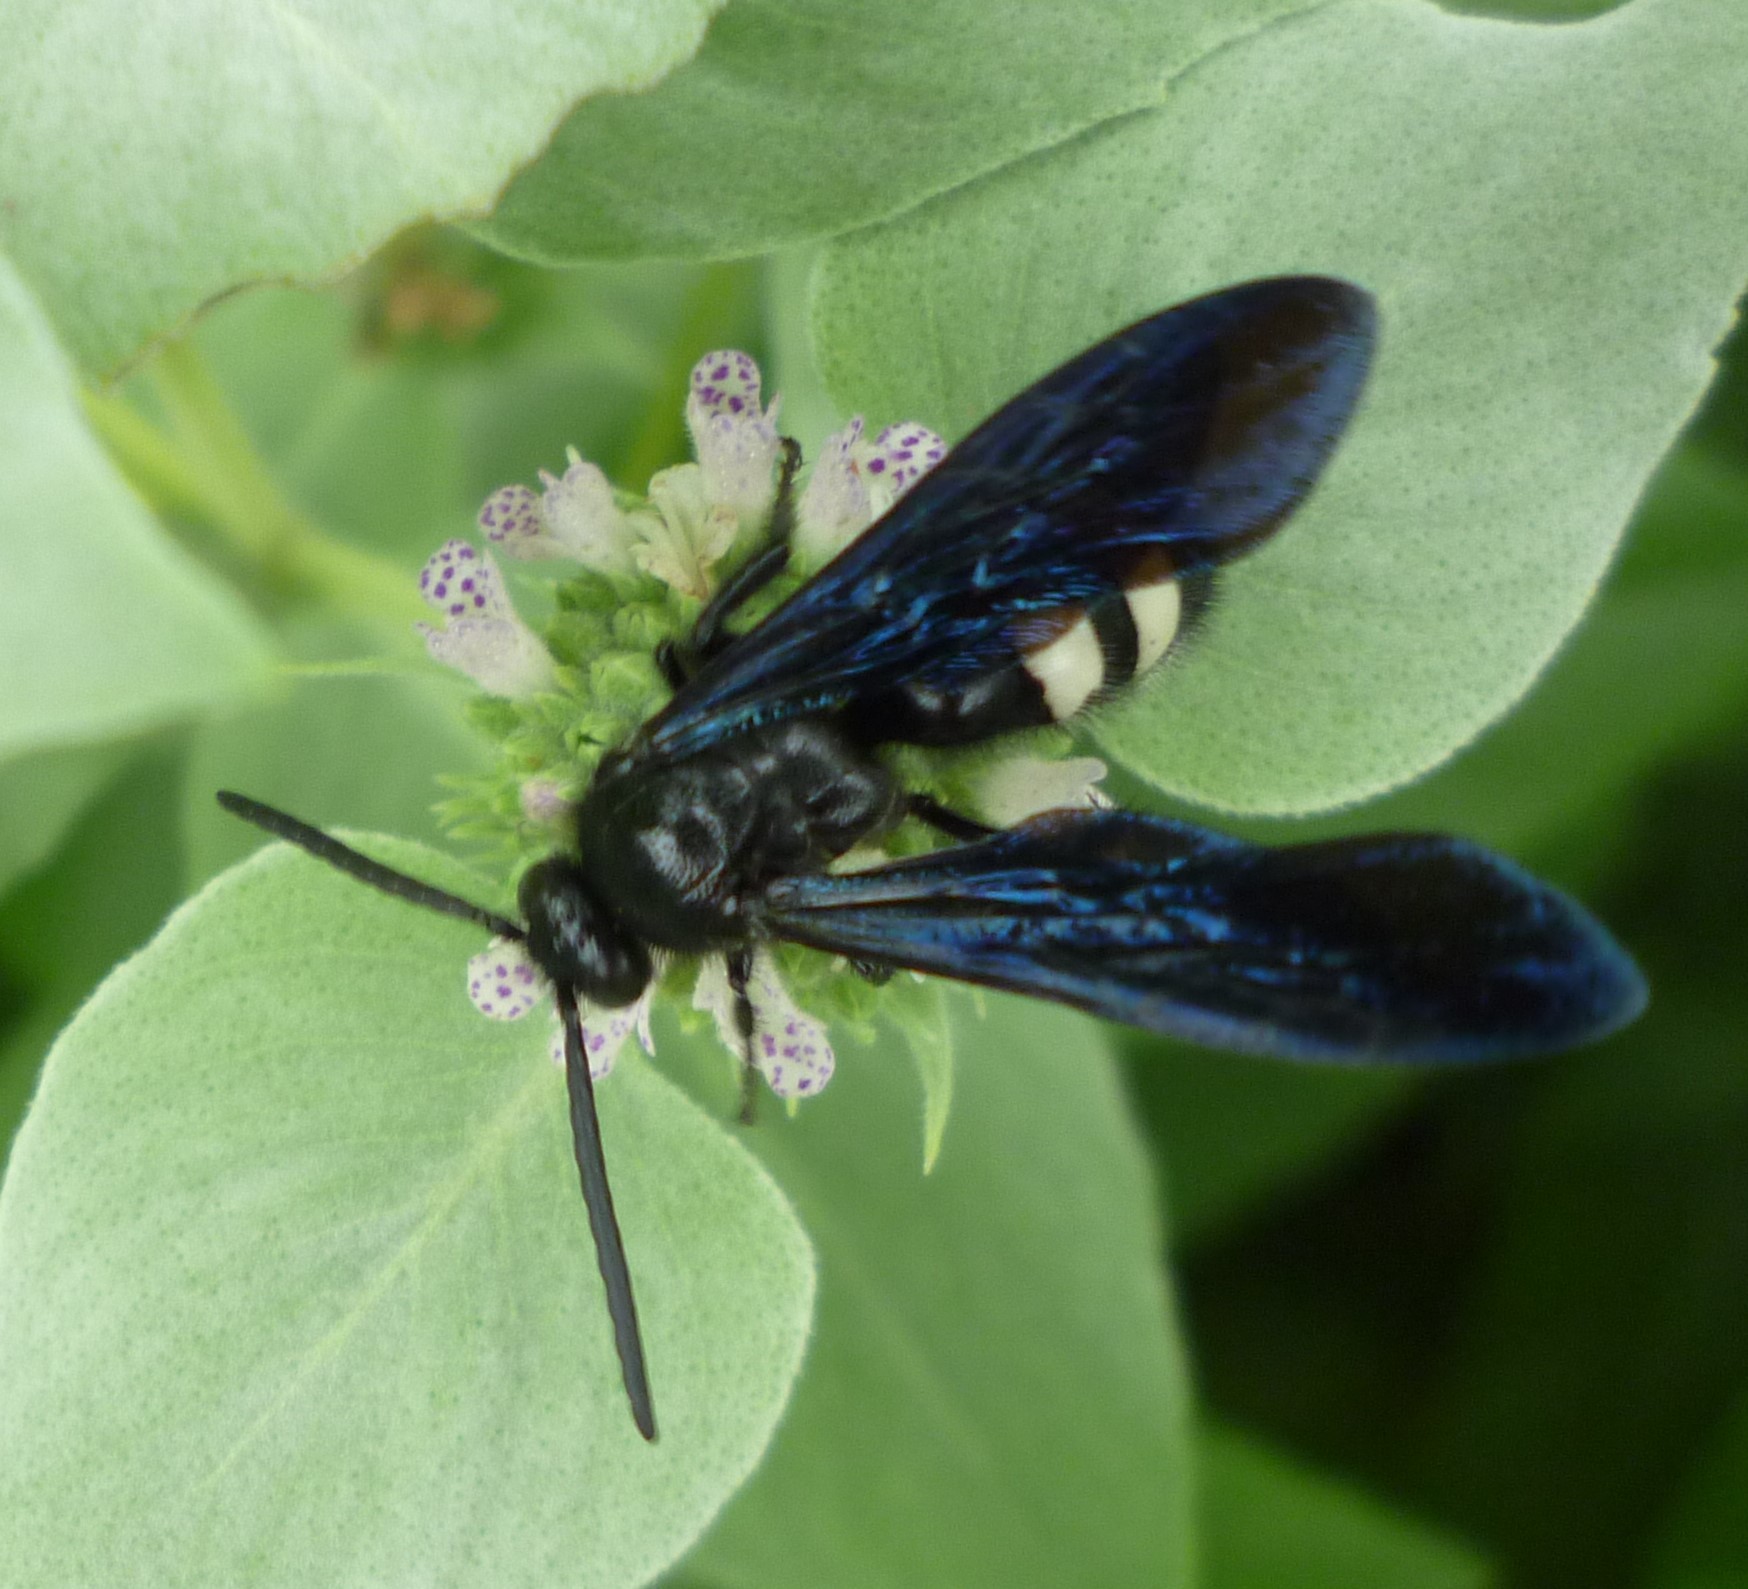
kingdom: Animalia
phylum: Arthropoda
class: Insecta
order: Hymenoptera
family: Scoliidae
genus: Scolia
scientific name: Scolia bicincta
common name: Double-banded scoliid wasp
